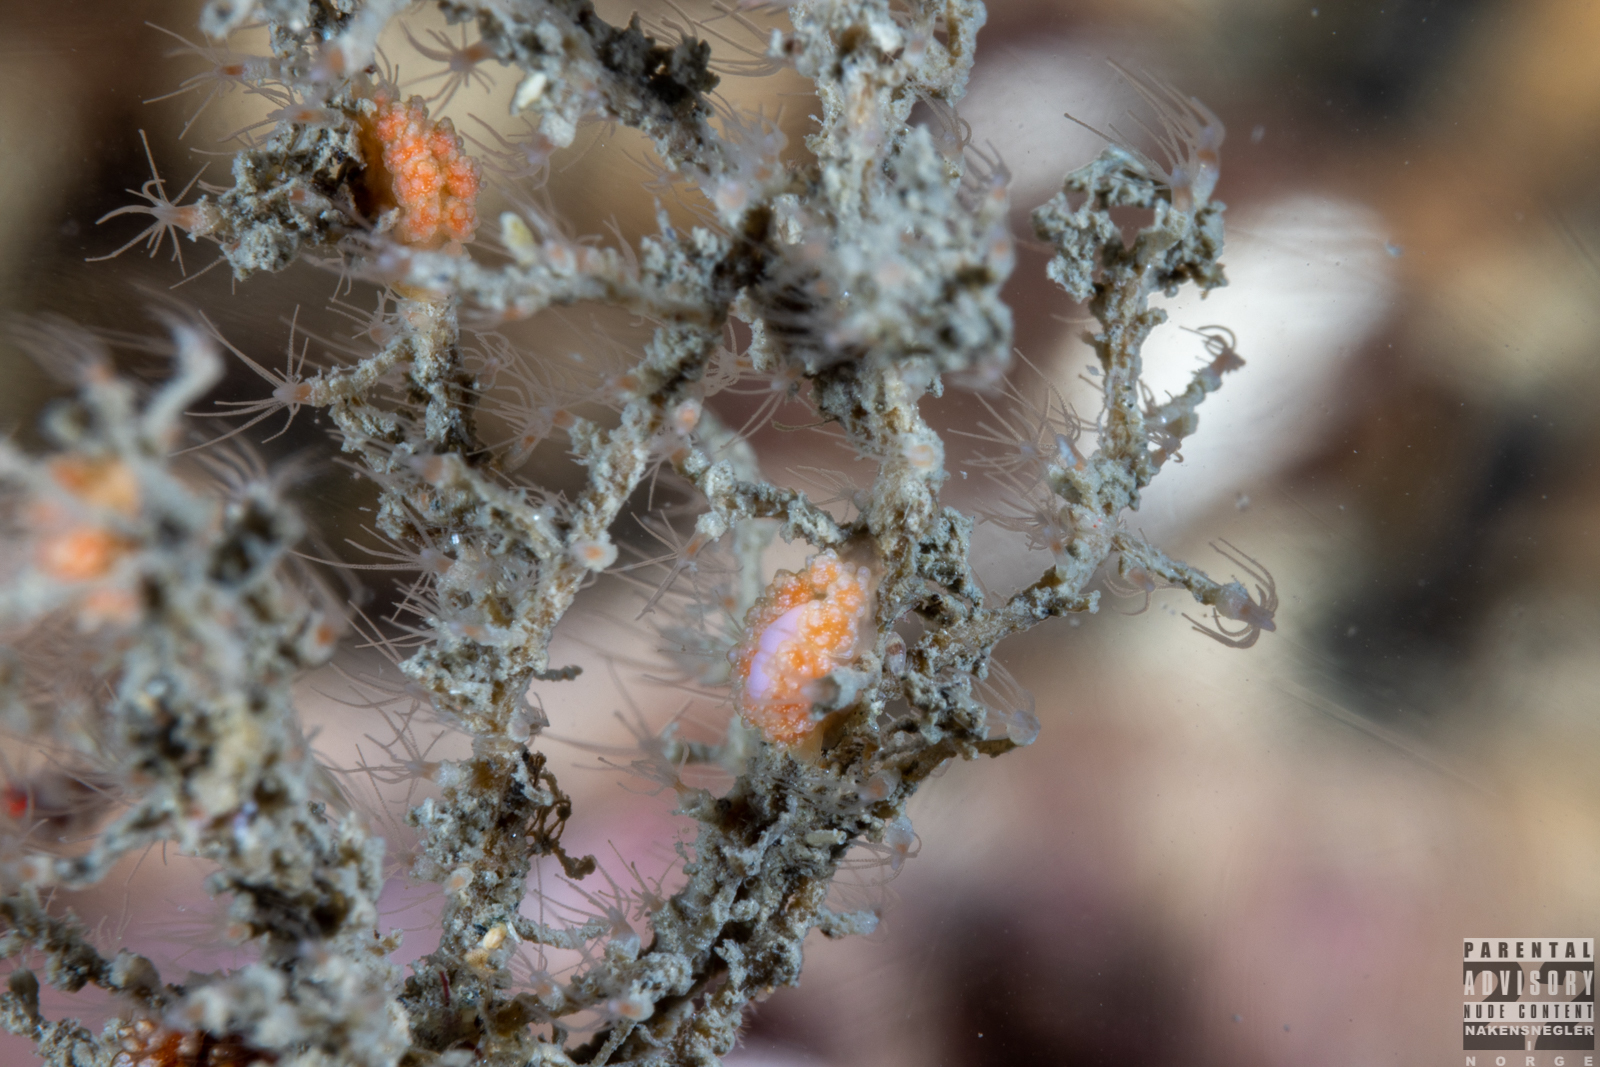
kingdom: Animalia
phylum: Mollusca
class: Gastropoda
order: Nudibranchia
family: Dotidae
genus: Doto
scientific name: Doto fragilis
